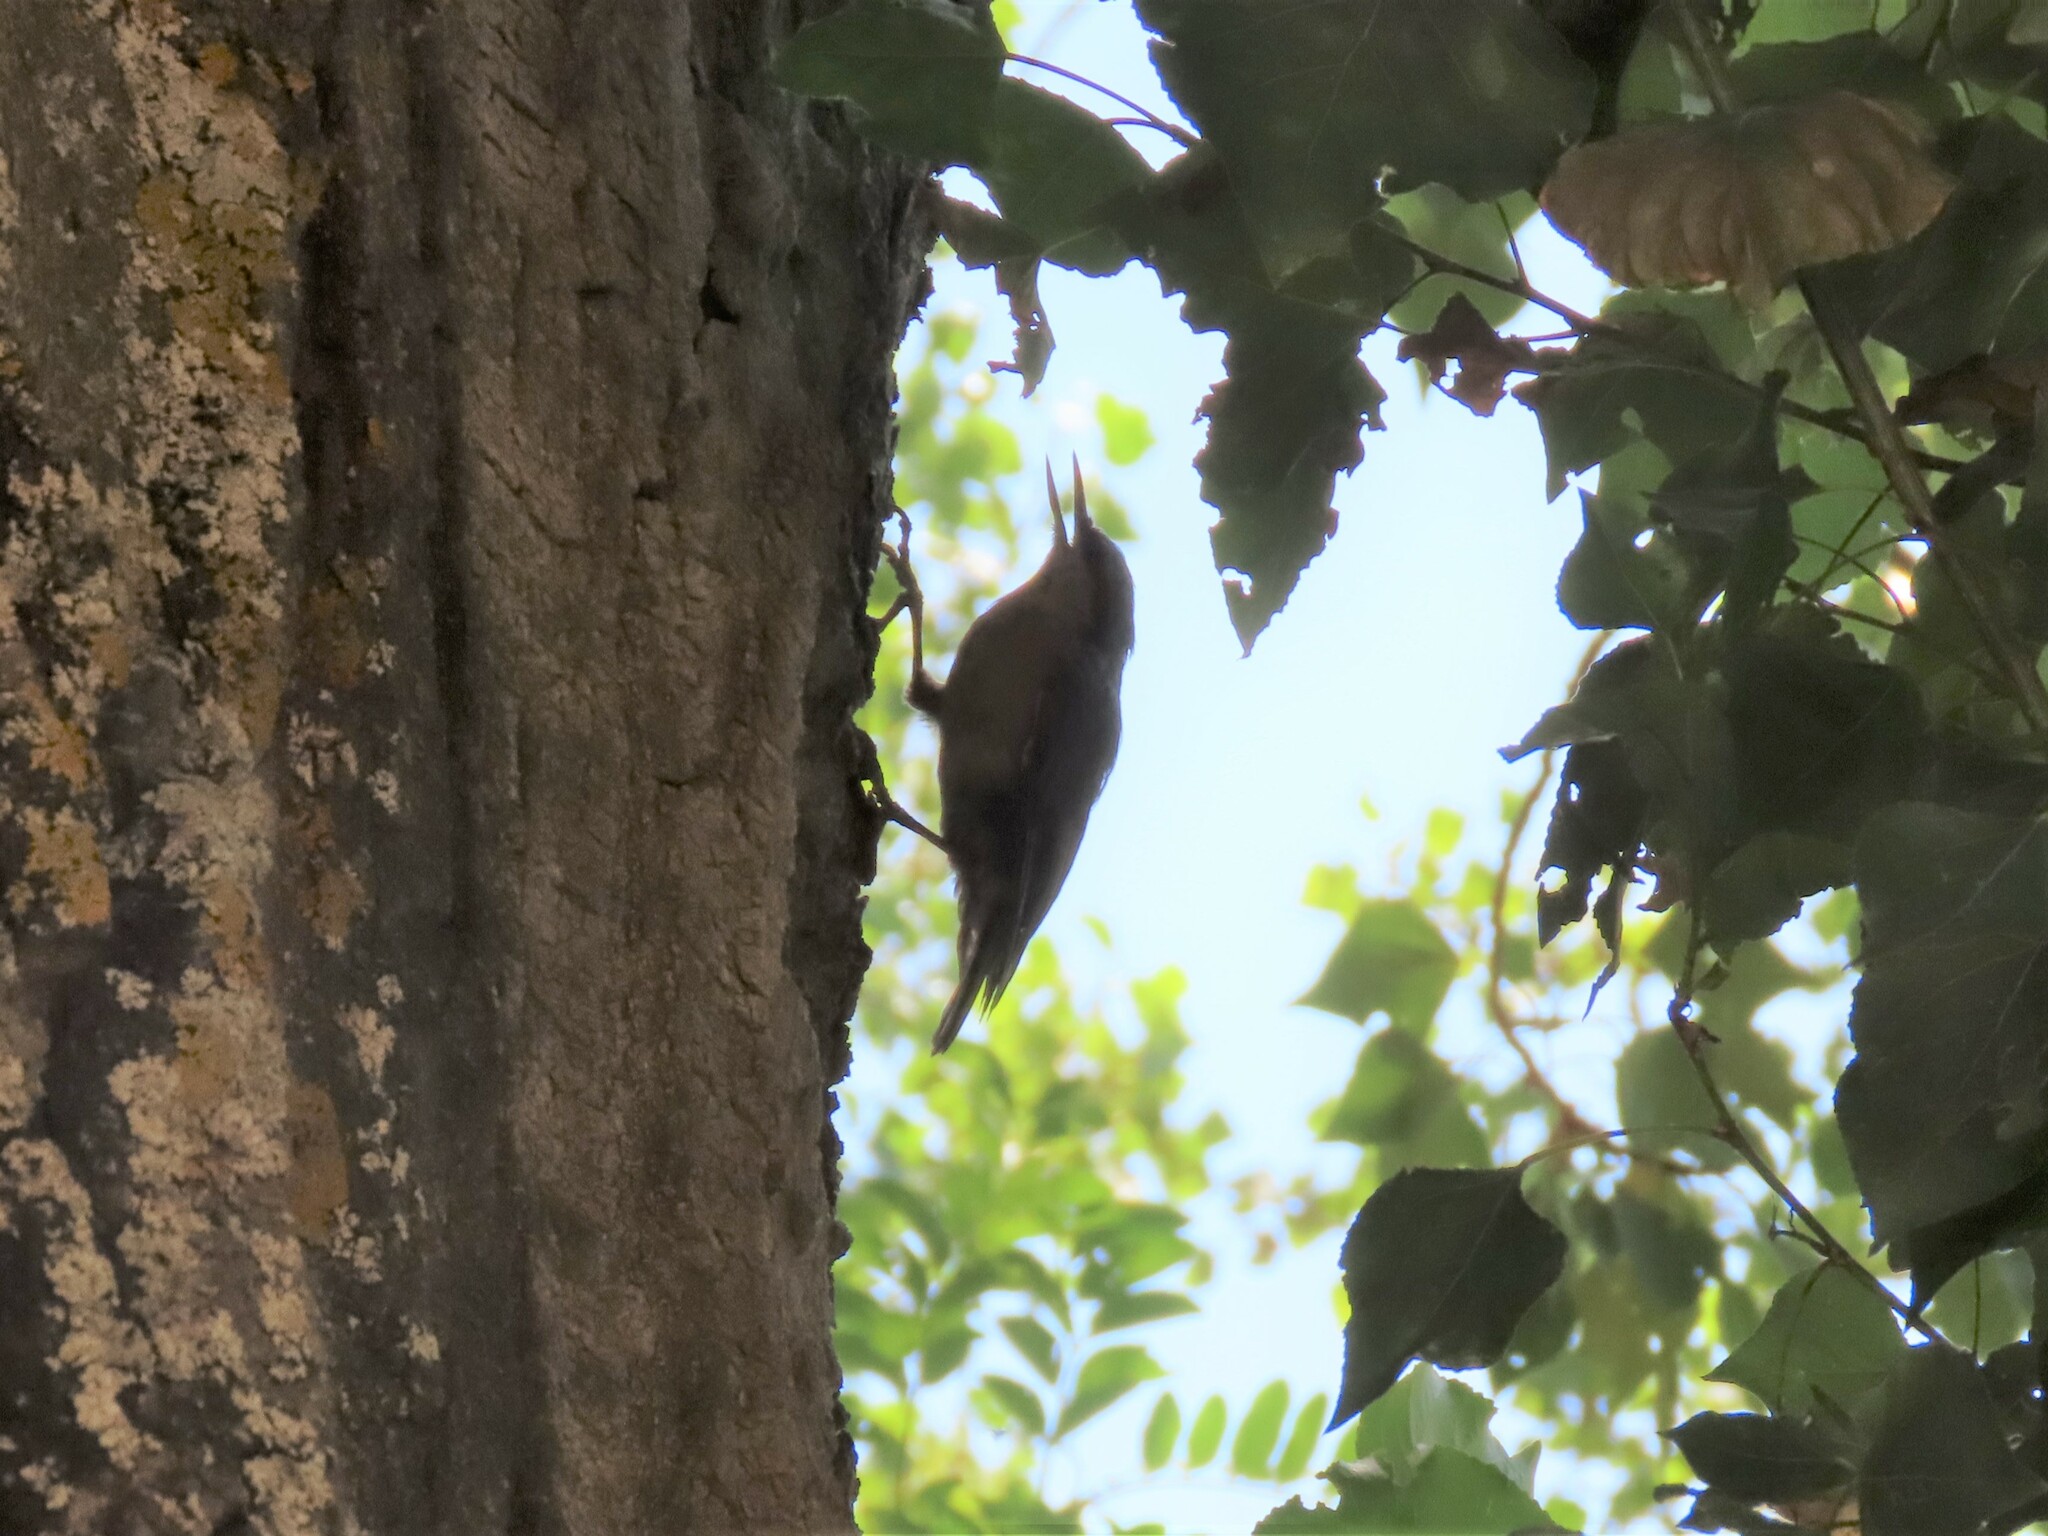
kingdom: Animalia
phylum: Chordata
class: Aves
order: Passeriformes
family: Sittidae
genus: Sitta
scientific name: Sitta europaea
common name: Eurasian nuthatch
